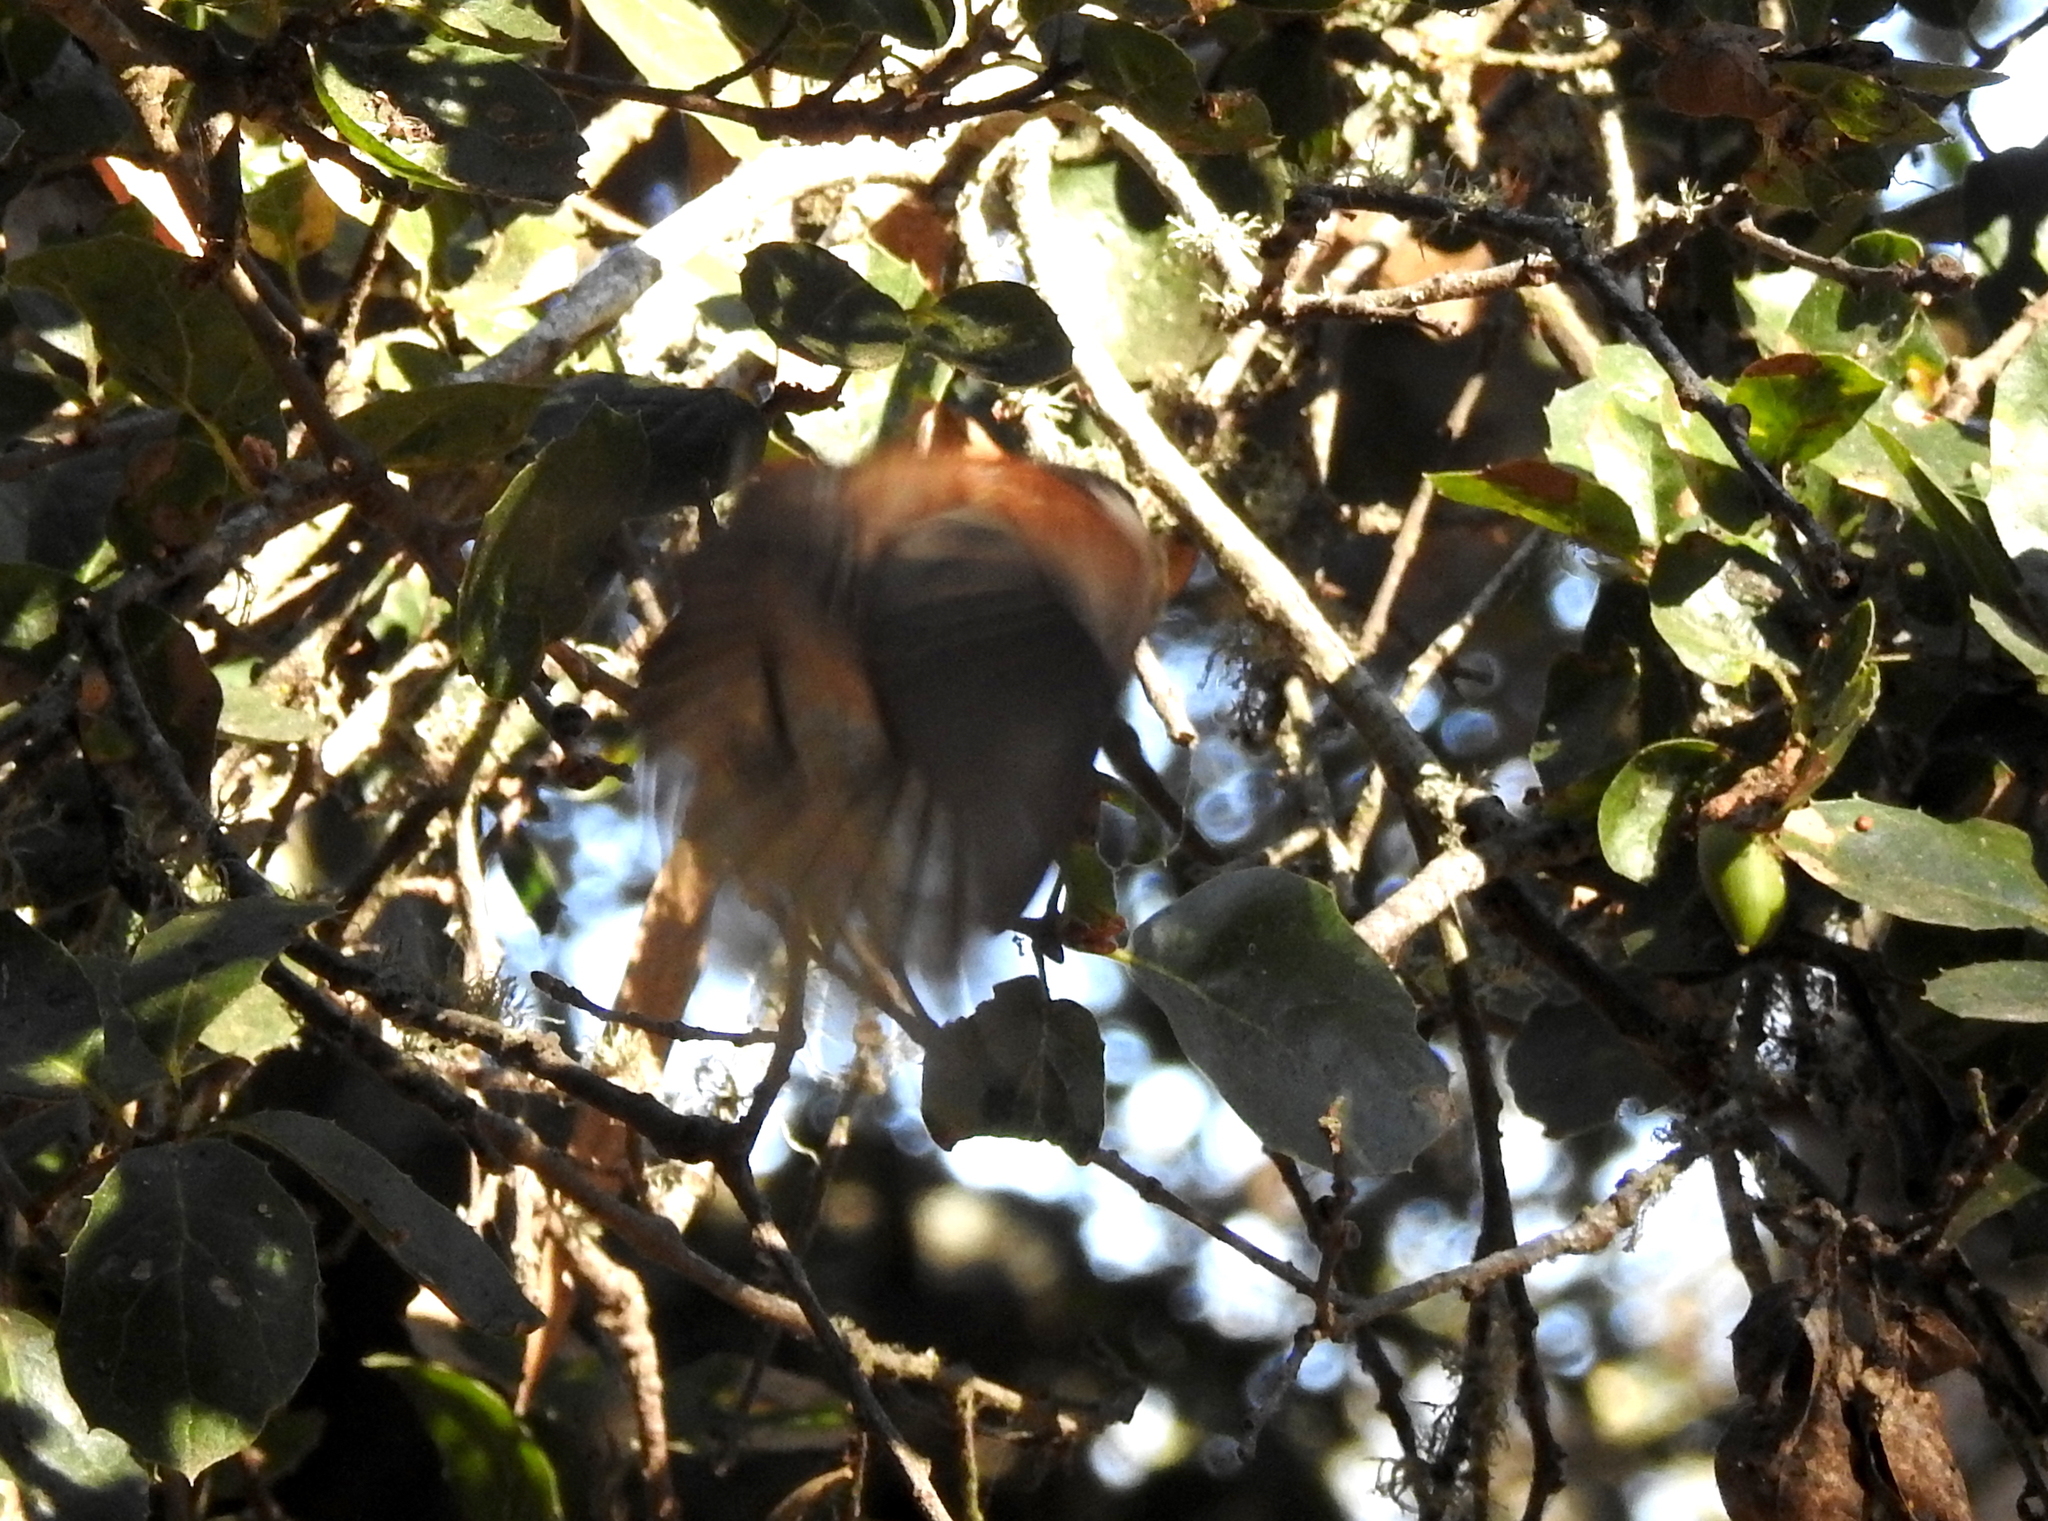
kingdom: Animalia
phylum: Chordata
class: Aves
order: Passeriformes
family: Paridae
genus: Poecile
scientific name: Poecile rufescens
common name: Chestnut-backed chickadee
